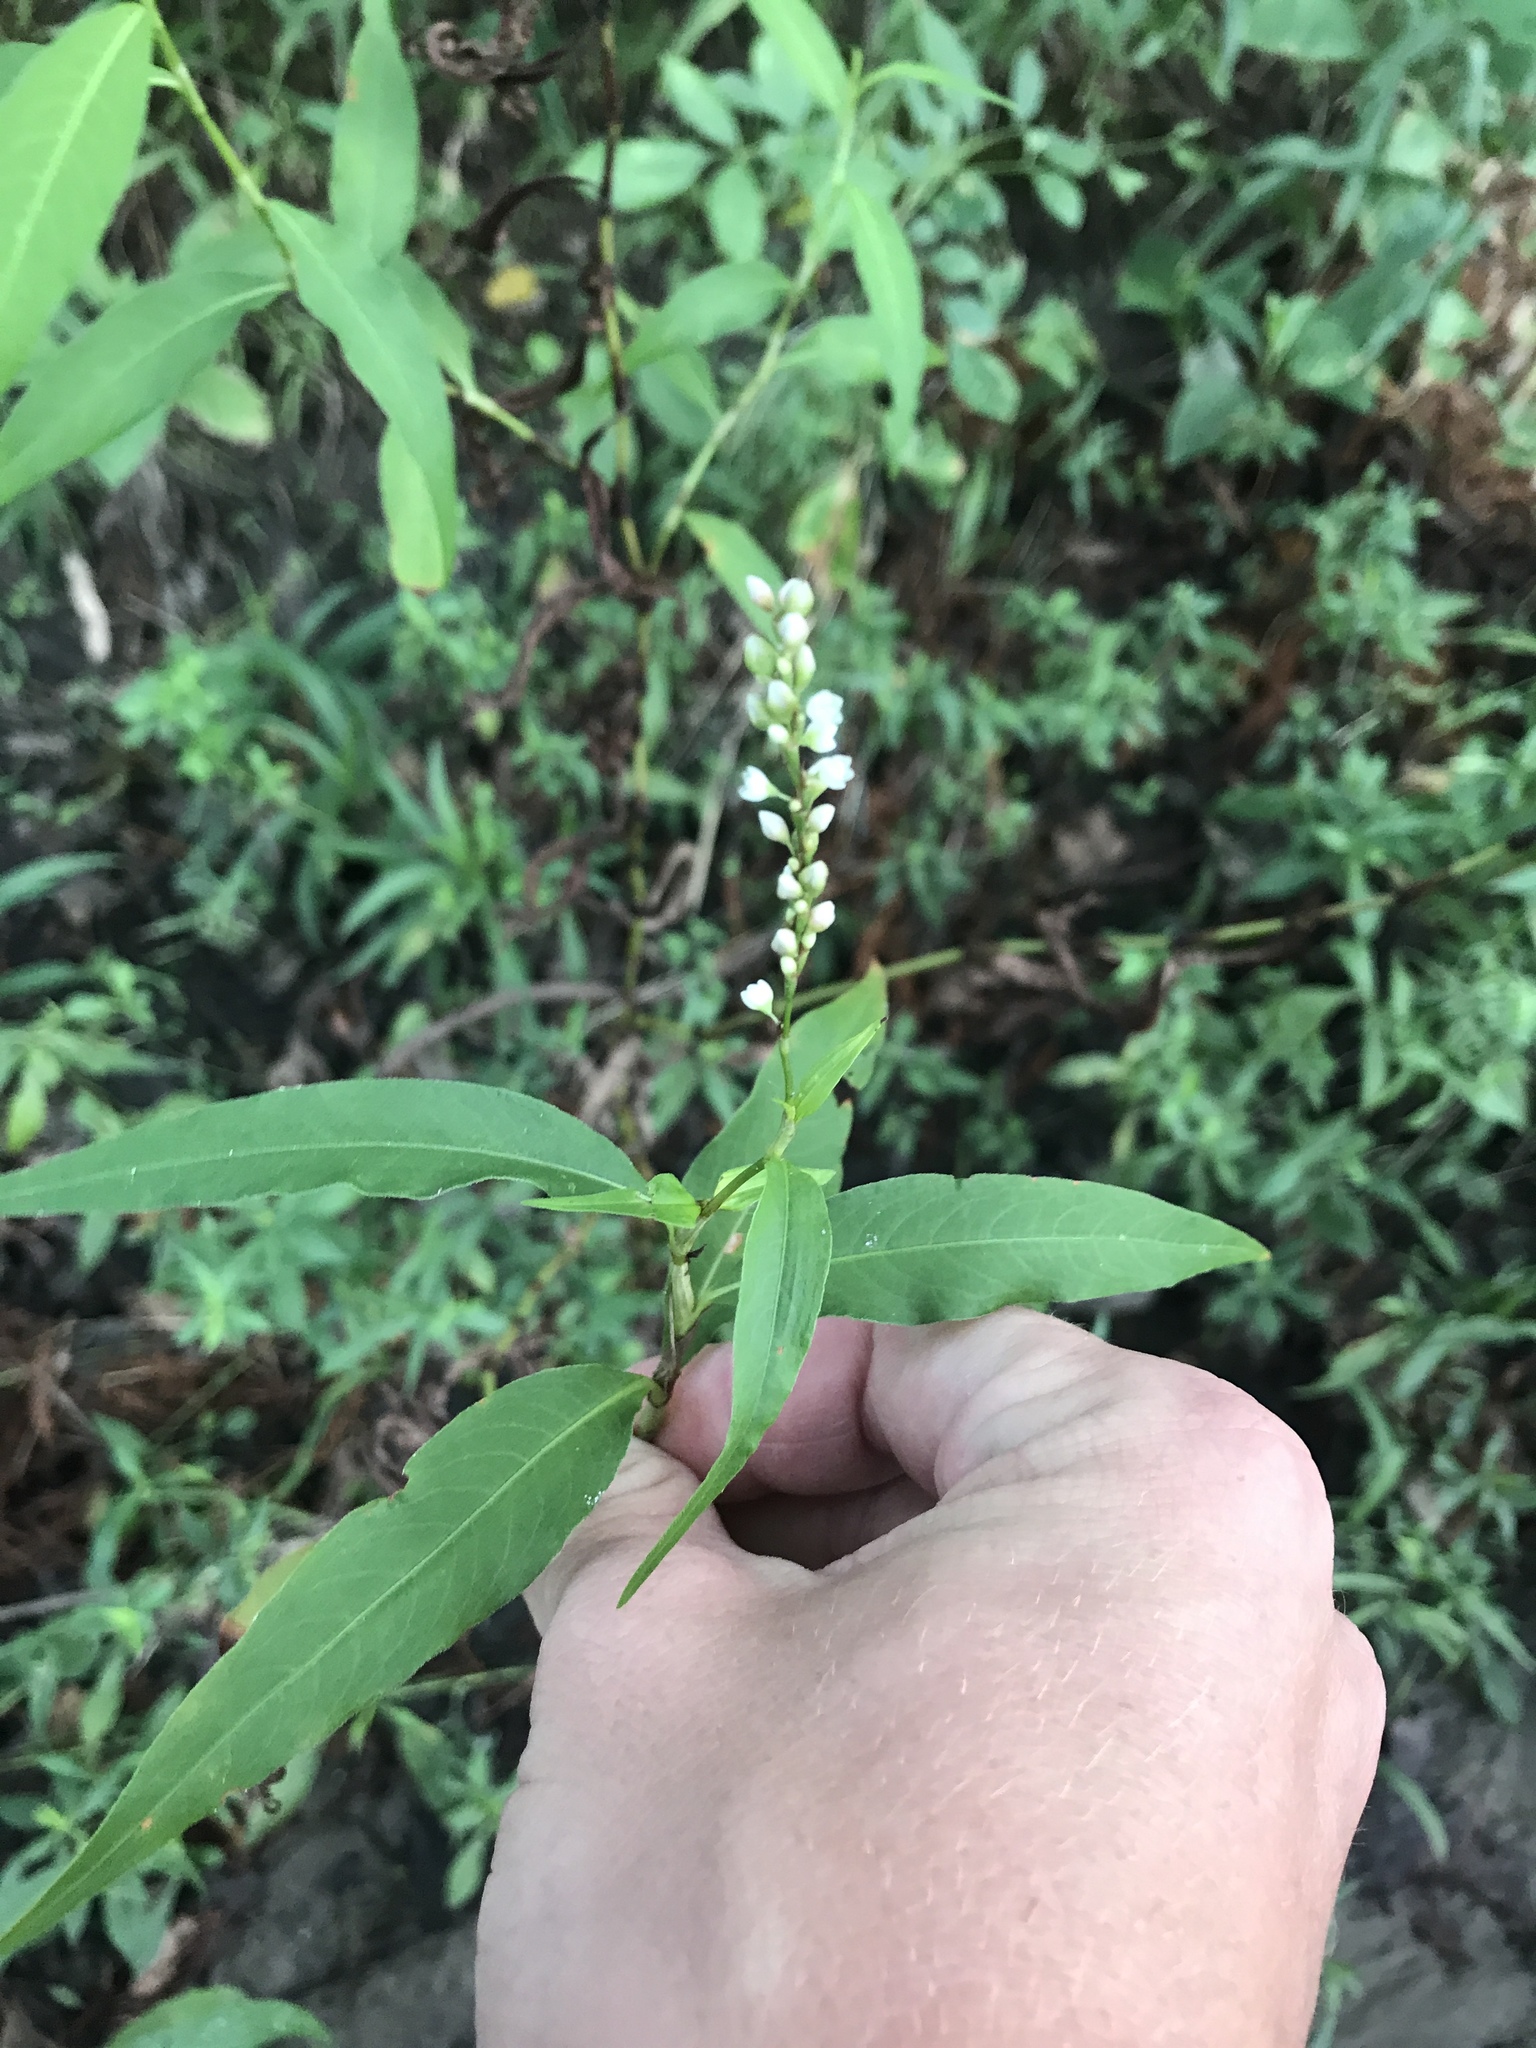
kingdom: Plantae
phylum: Tracheophyta
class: Magnoliopsida
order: Caryophyllales
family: Polygonaceae
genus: Persicaria
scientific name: Persicaria hydropiperoides
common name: Swamp smartweed
